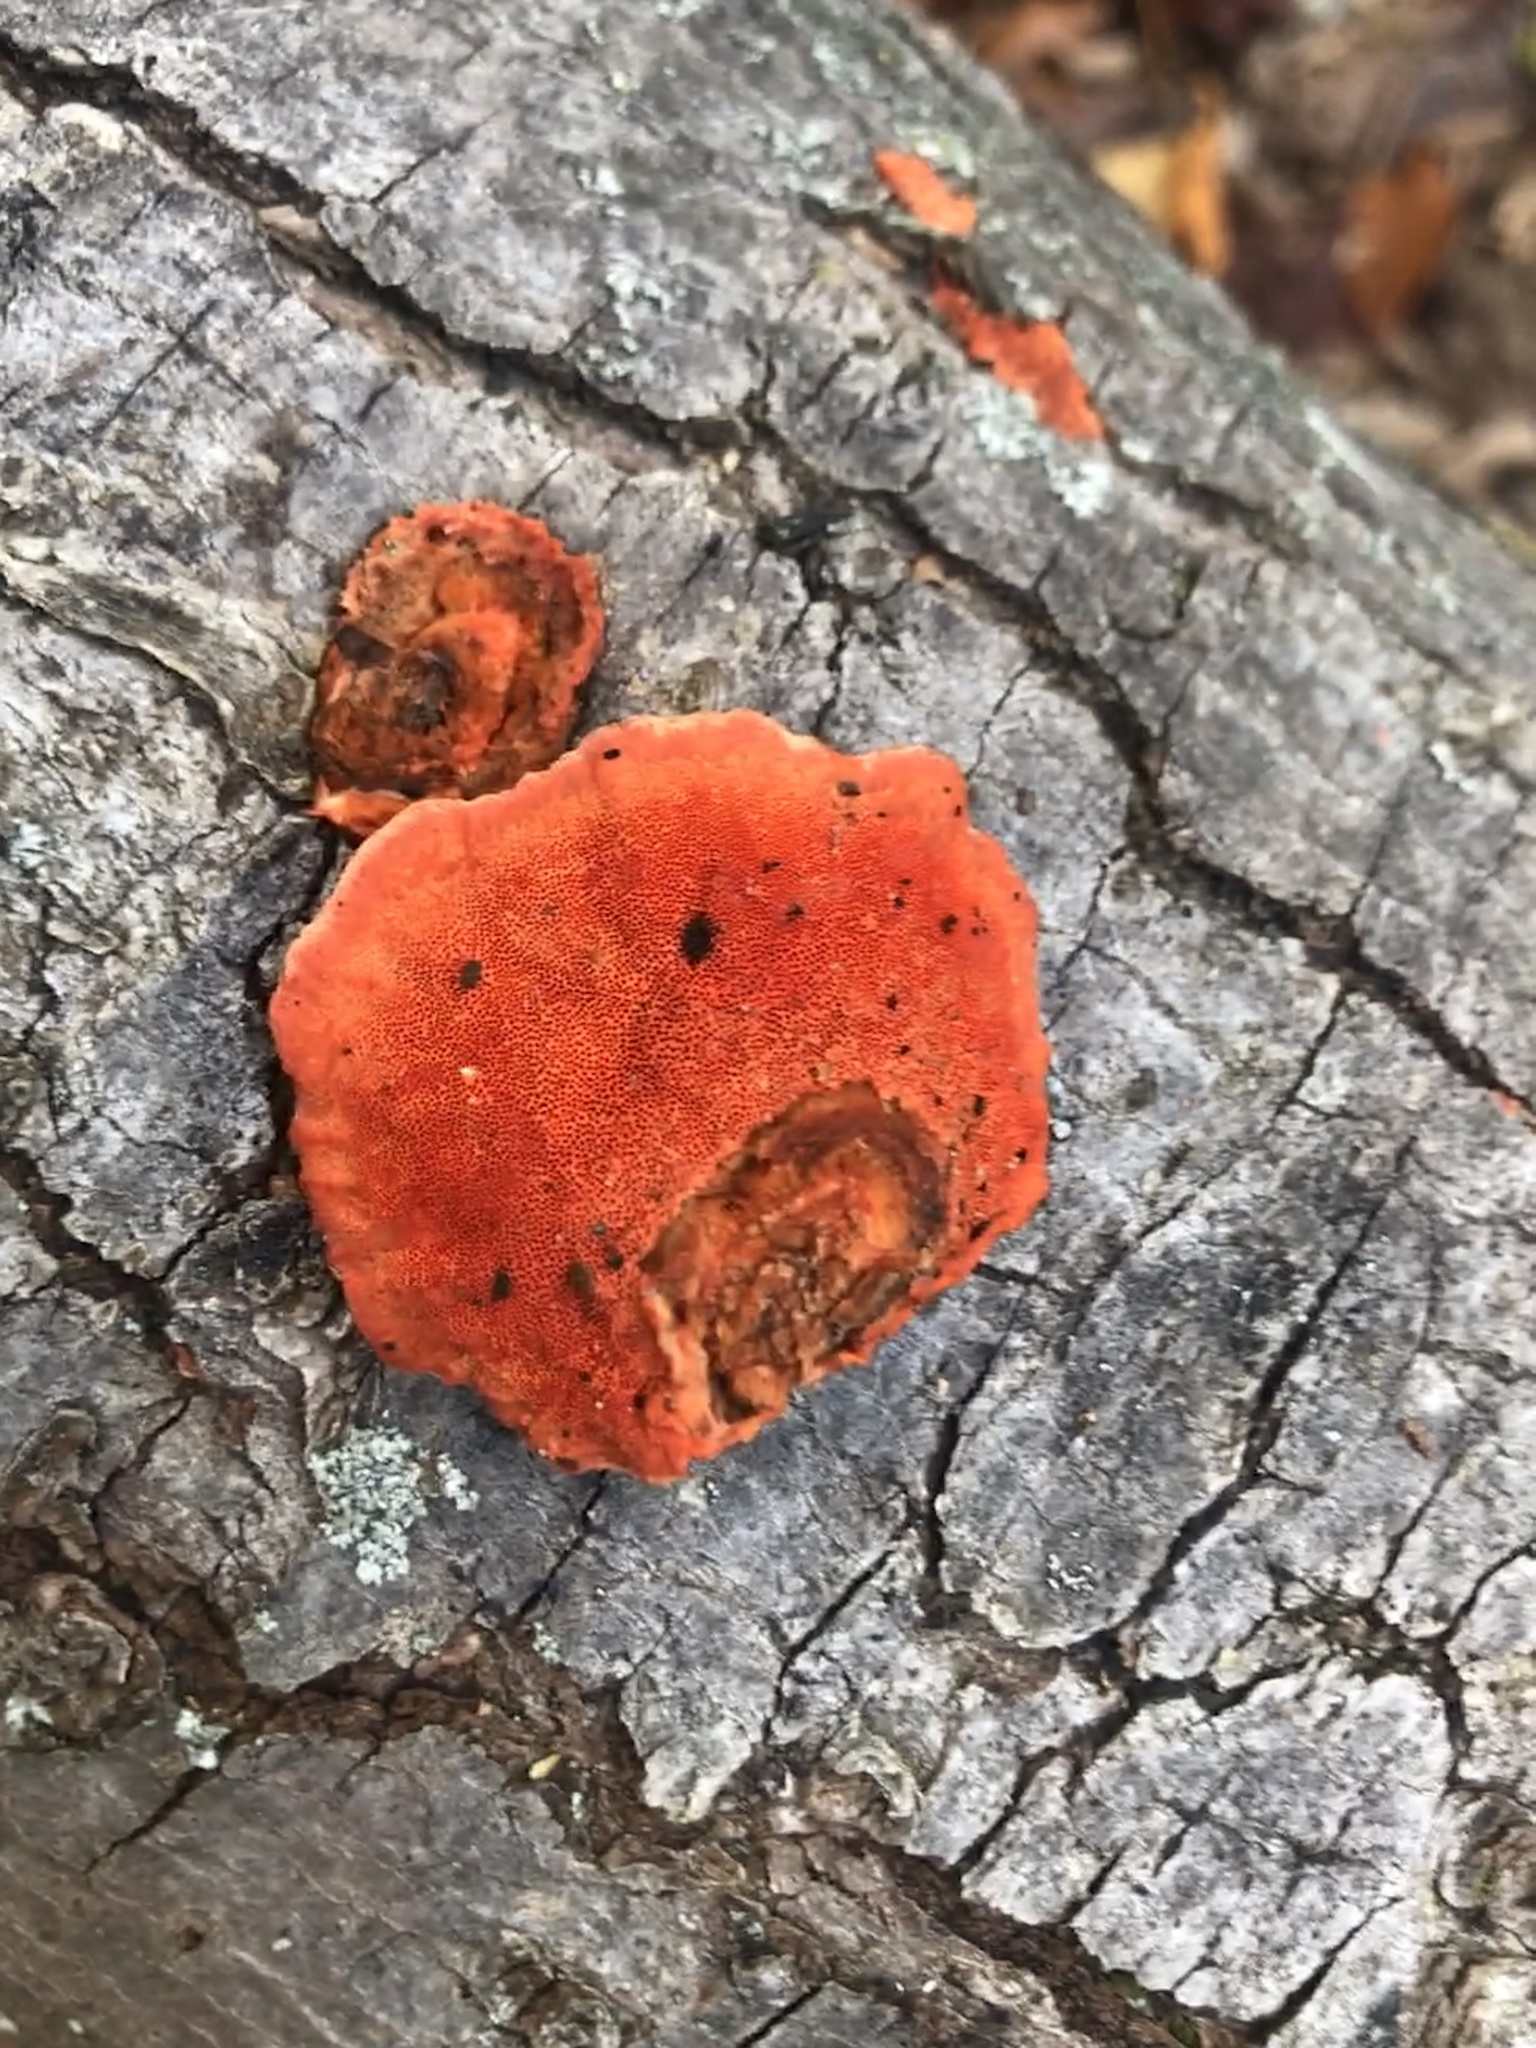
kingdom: Fungi
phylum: Basidiomycota
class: Agaricomycetes
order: Polyporales
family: Polyporaceae
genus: Trametes
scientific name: Trametes cinnabarina
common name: Northern cinnabar polypore
